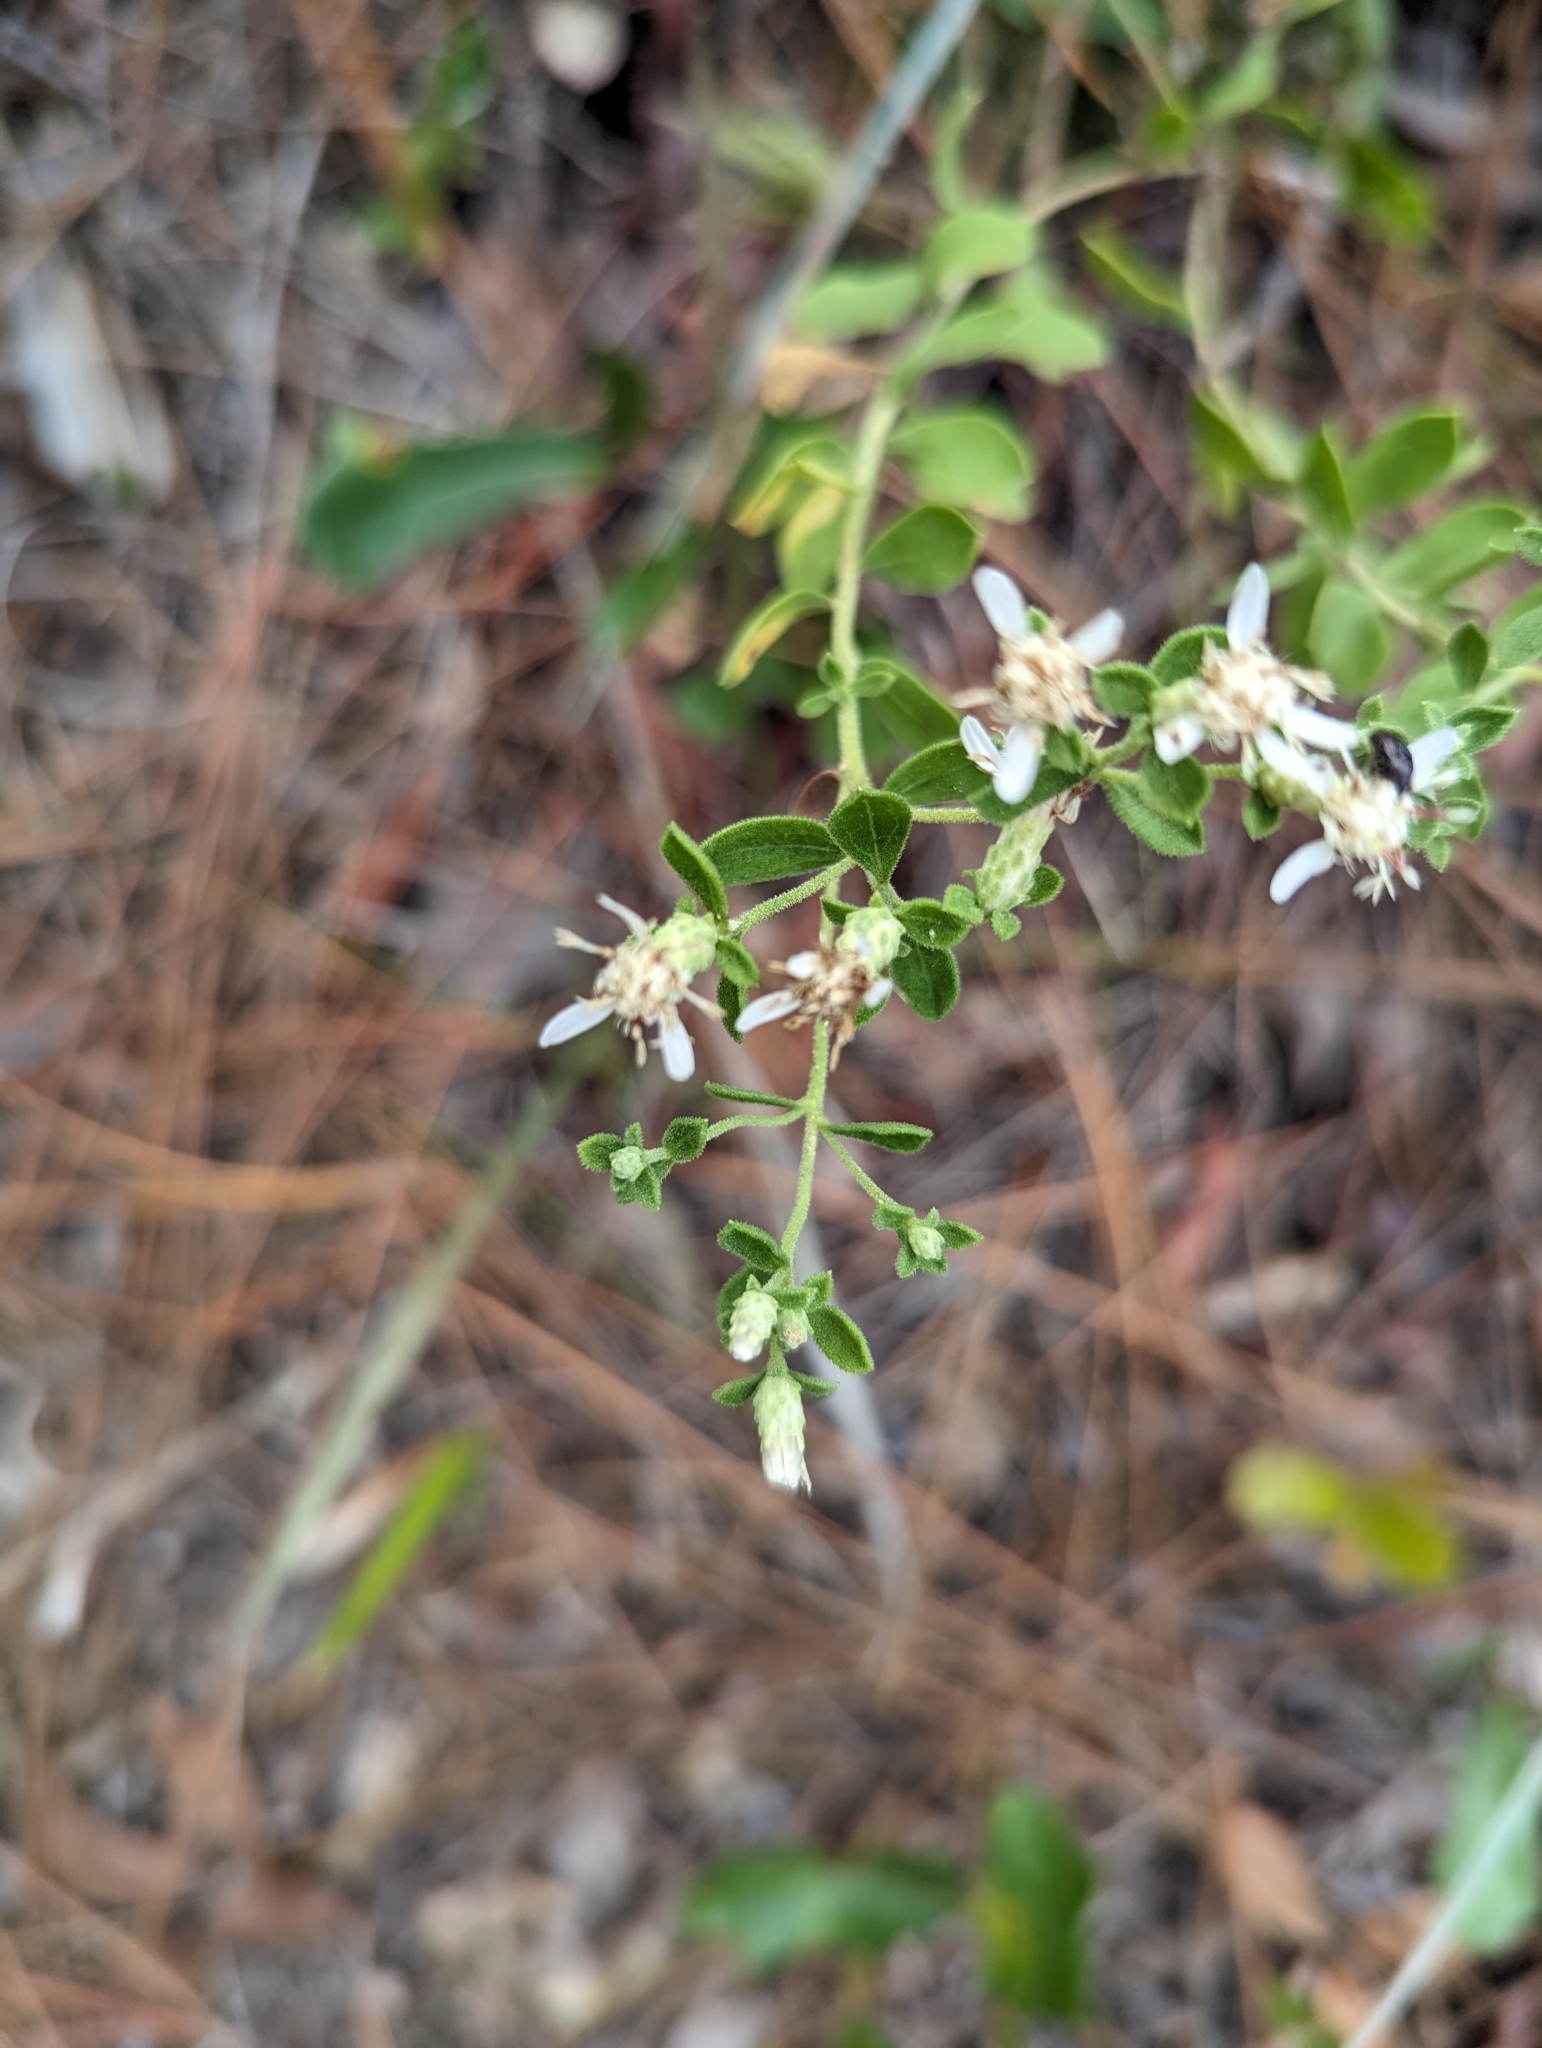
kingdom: Plantae
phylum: Tracheophyta
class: Magnoliopsida
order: Asterales
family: Asteraceae
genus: Sericocarpus
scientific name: Sericocarpus tortifolius
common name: Dixie aster
